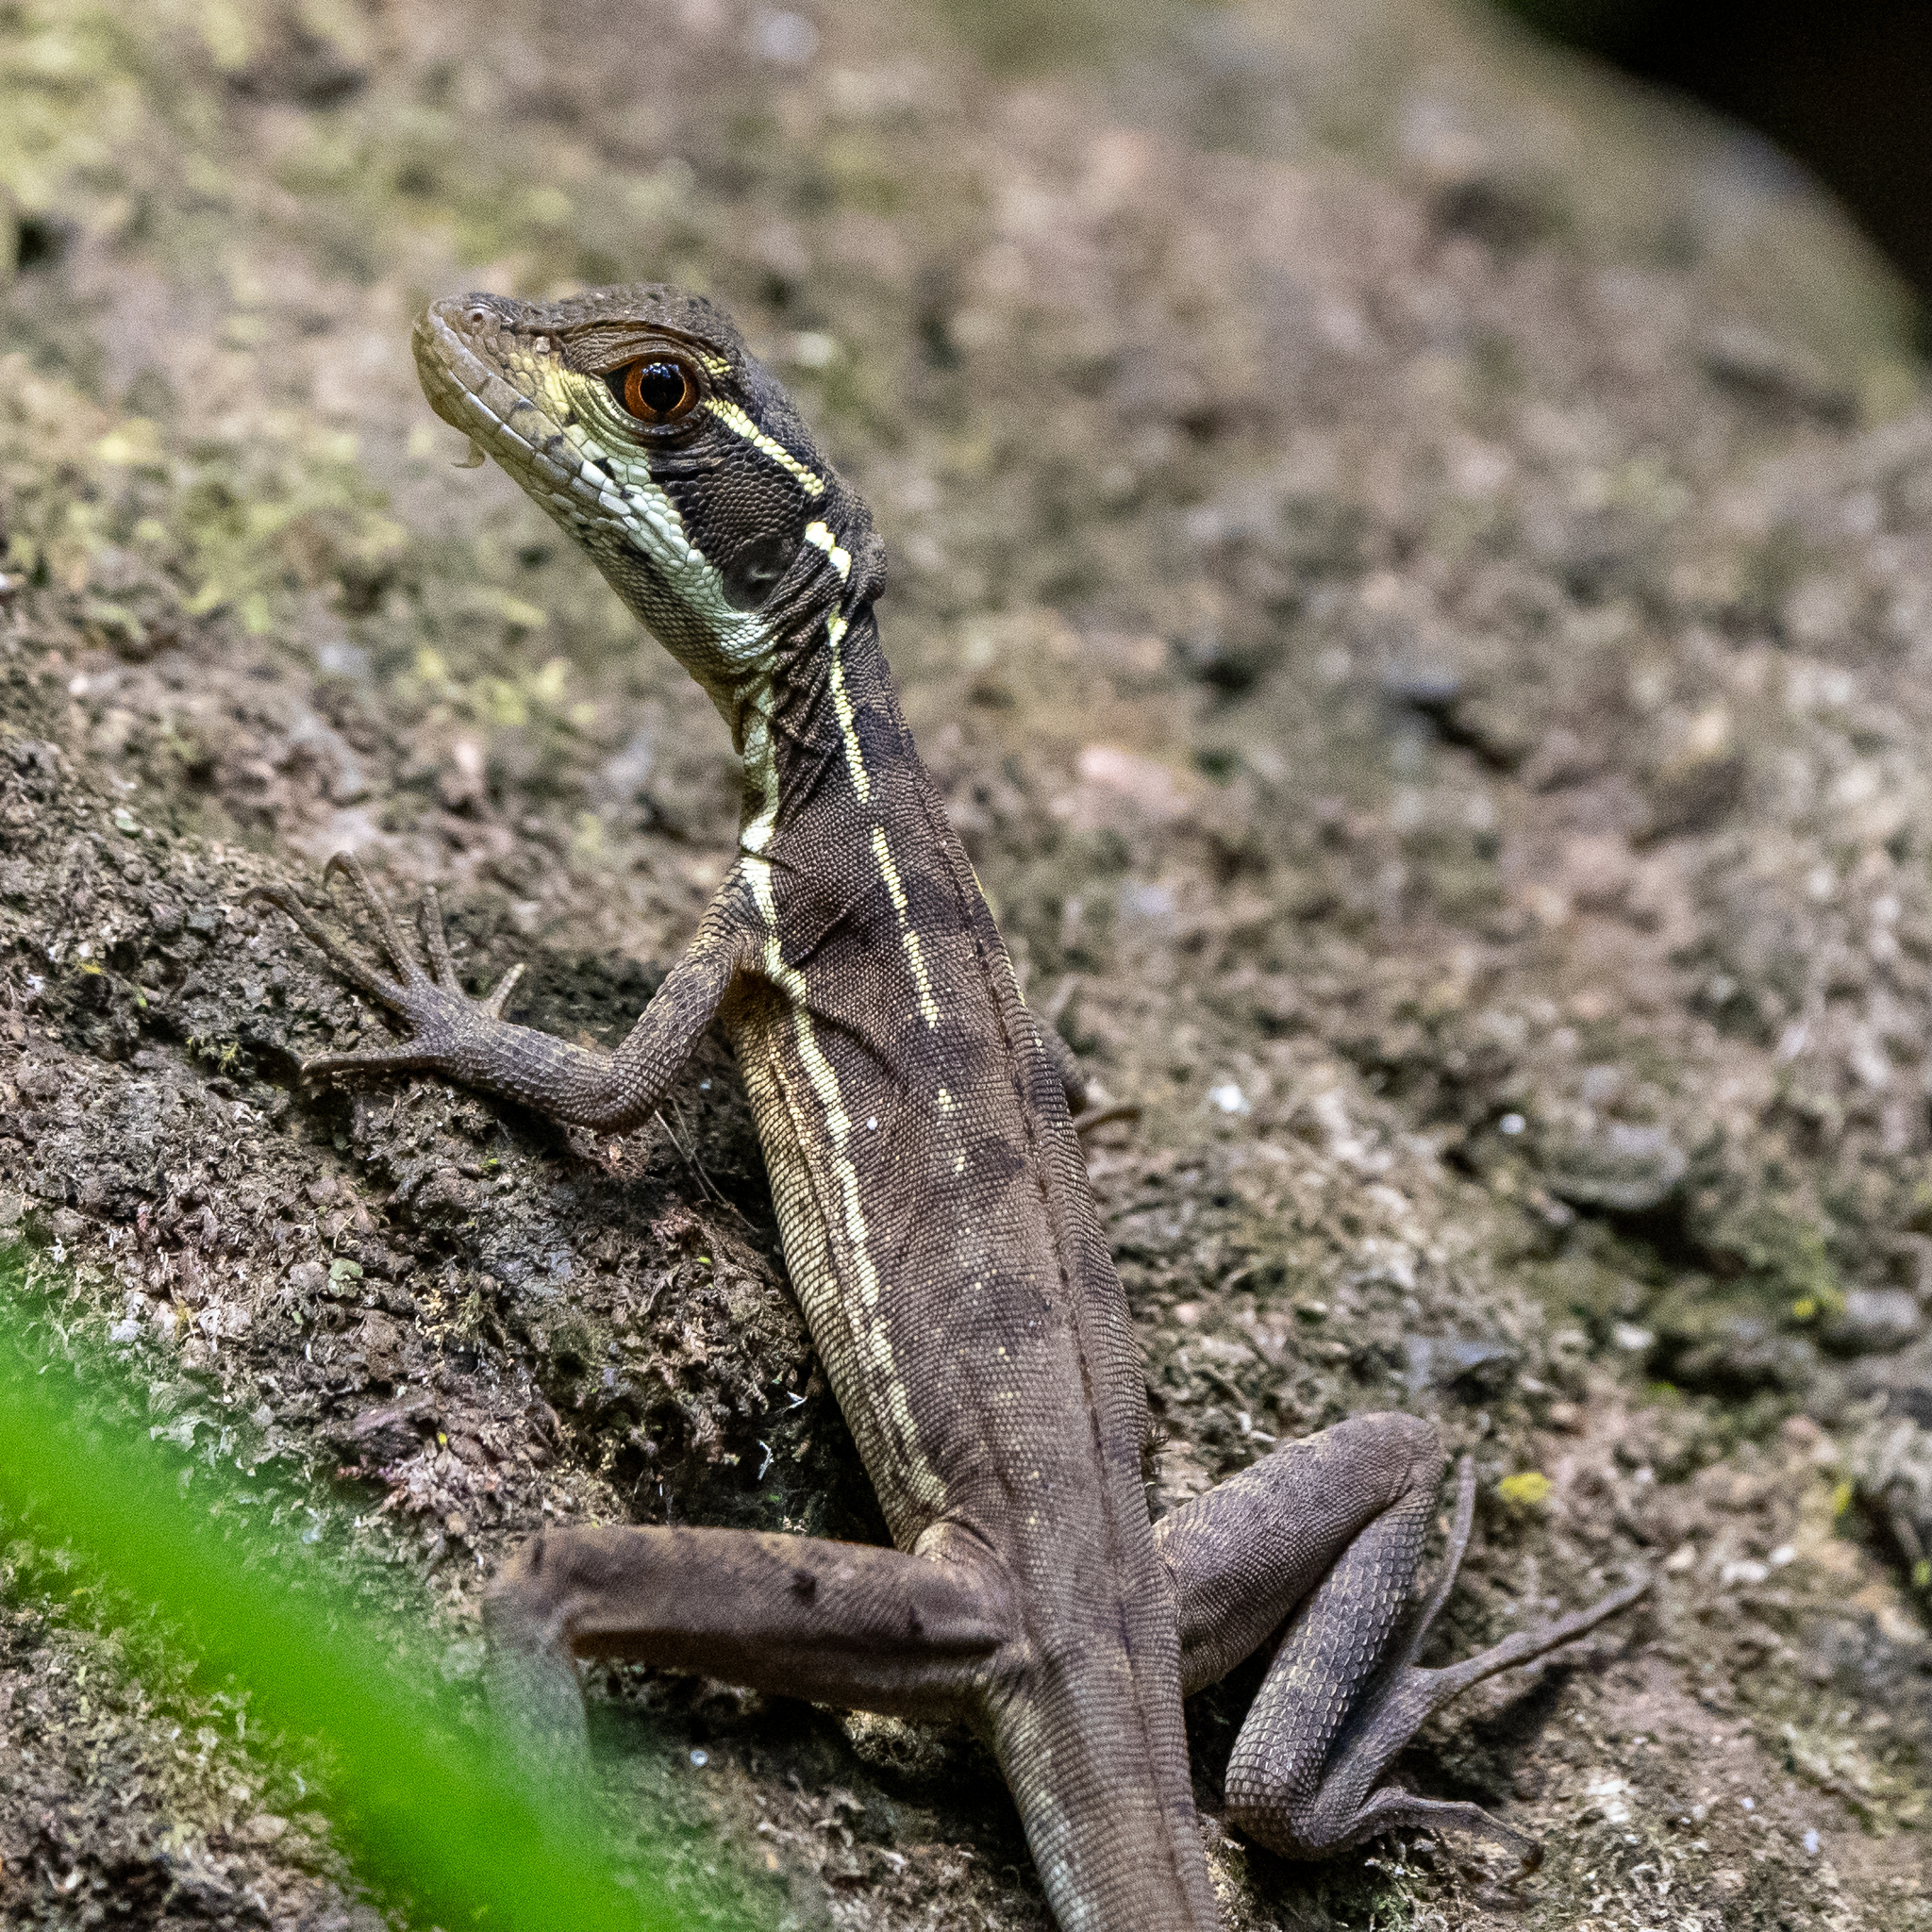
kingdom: Animalia
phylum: Chordata
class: Squamata
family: Corytophanidae
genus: Basiliscus
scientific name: Basiliscus basiliscus
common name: Common basilisk
